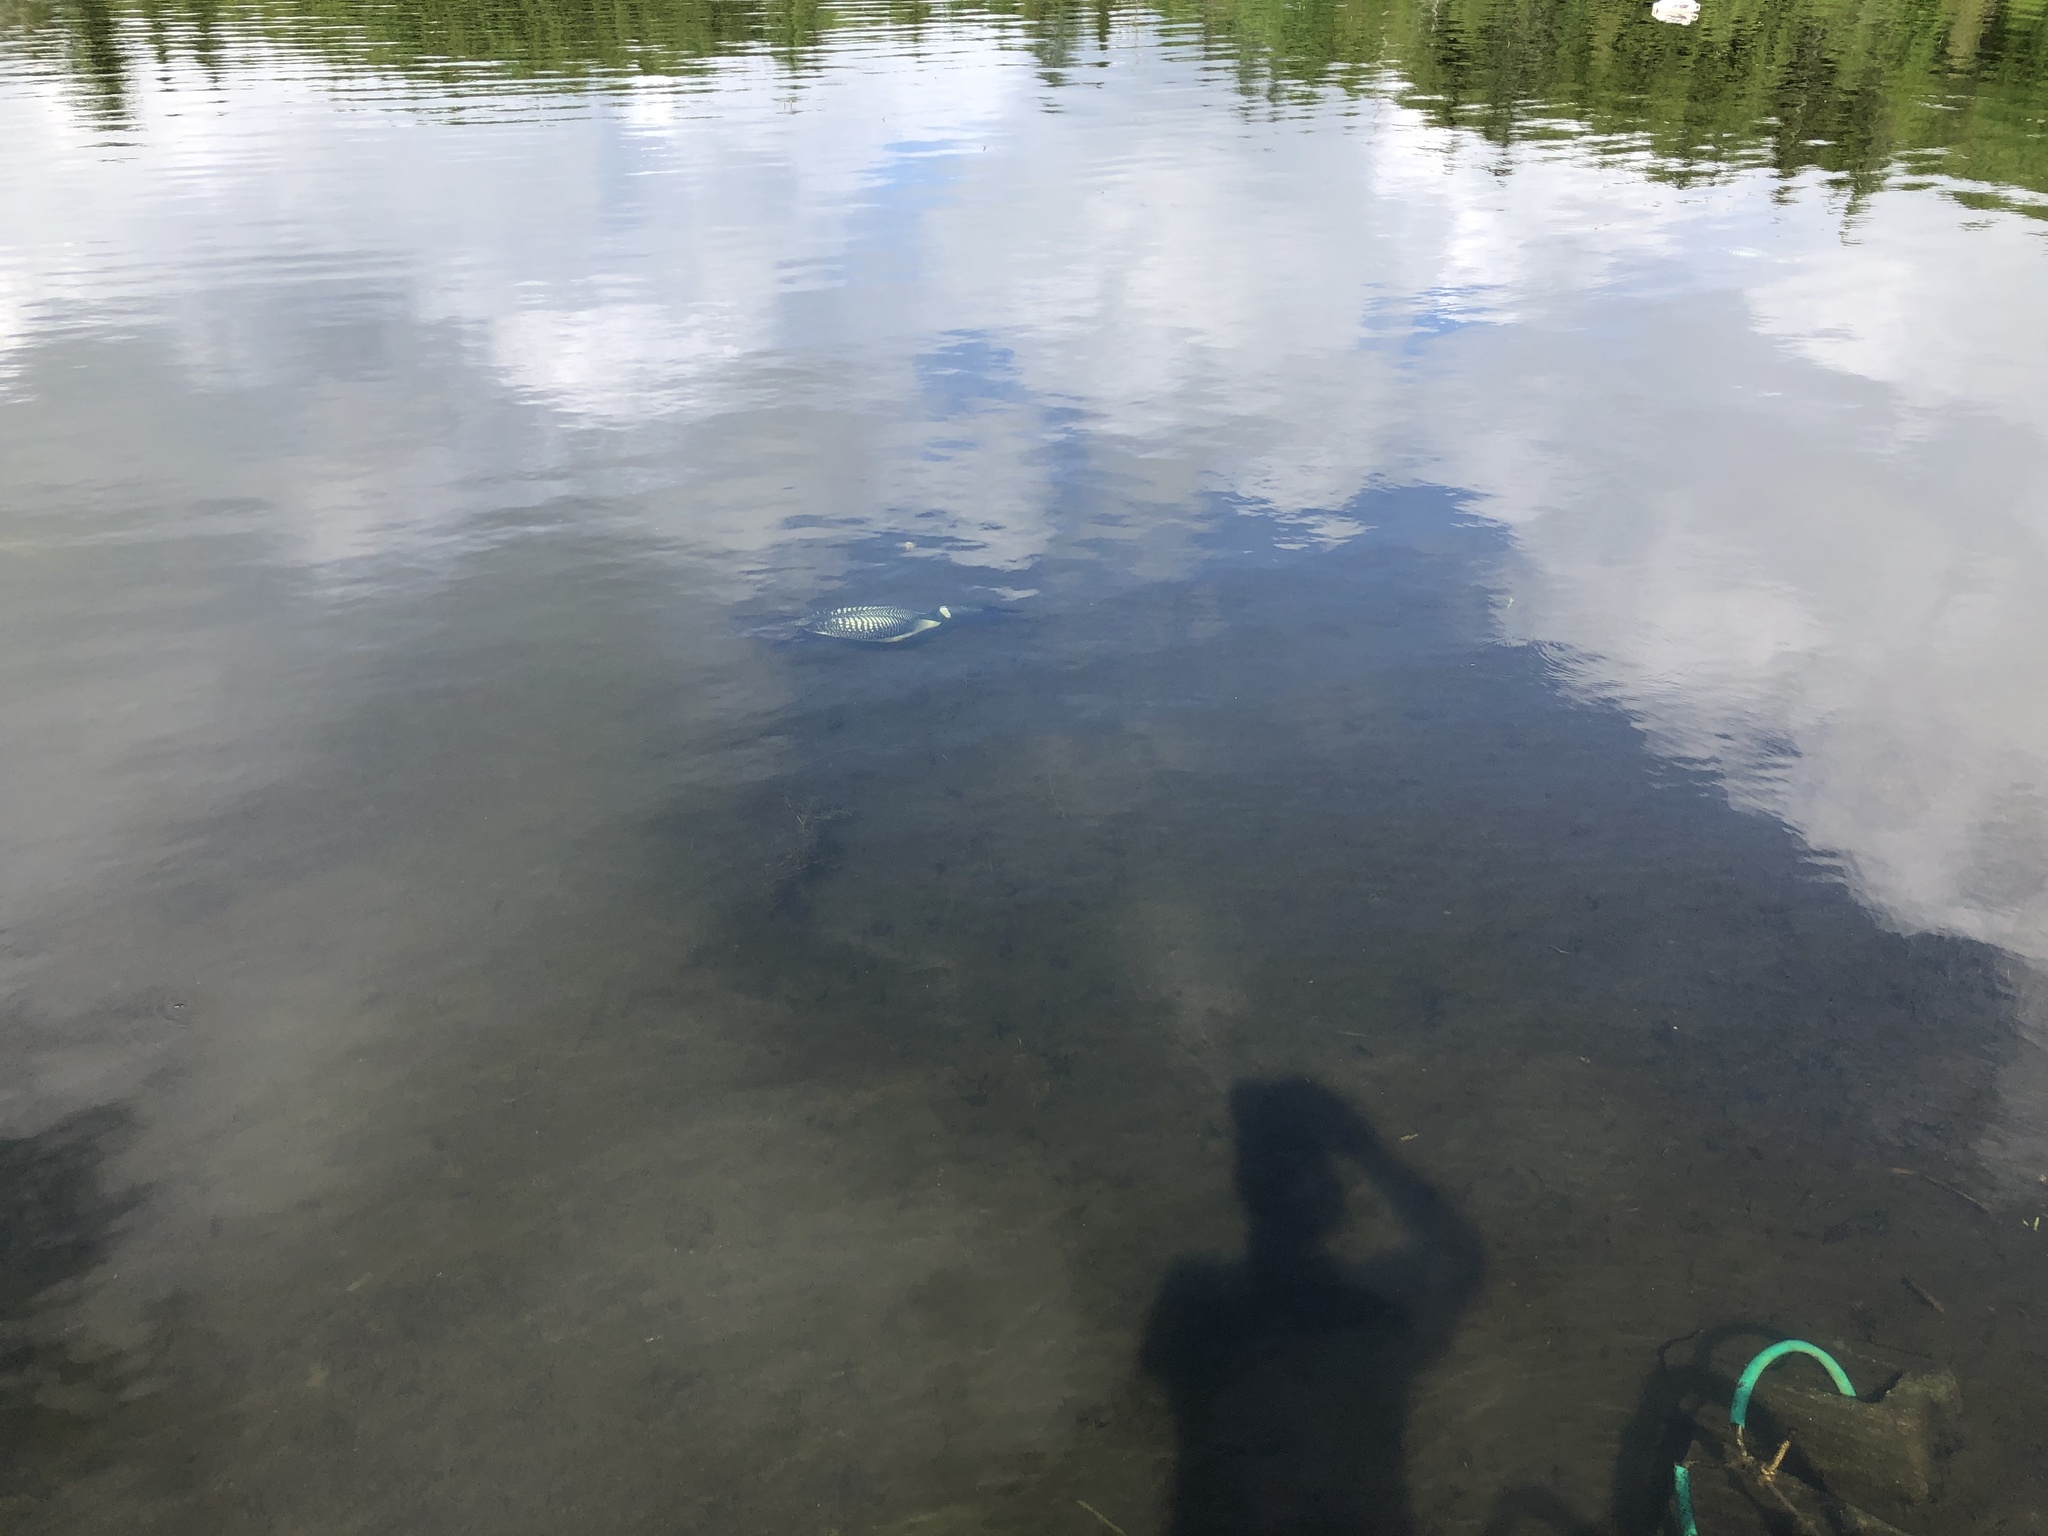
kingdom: Animalia
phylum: Chordata
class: Aves
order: Gaviiformes
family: Gaviidae
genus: Gavia
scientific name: Gavia immer
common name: Common loon
